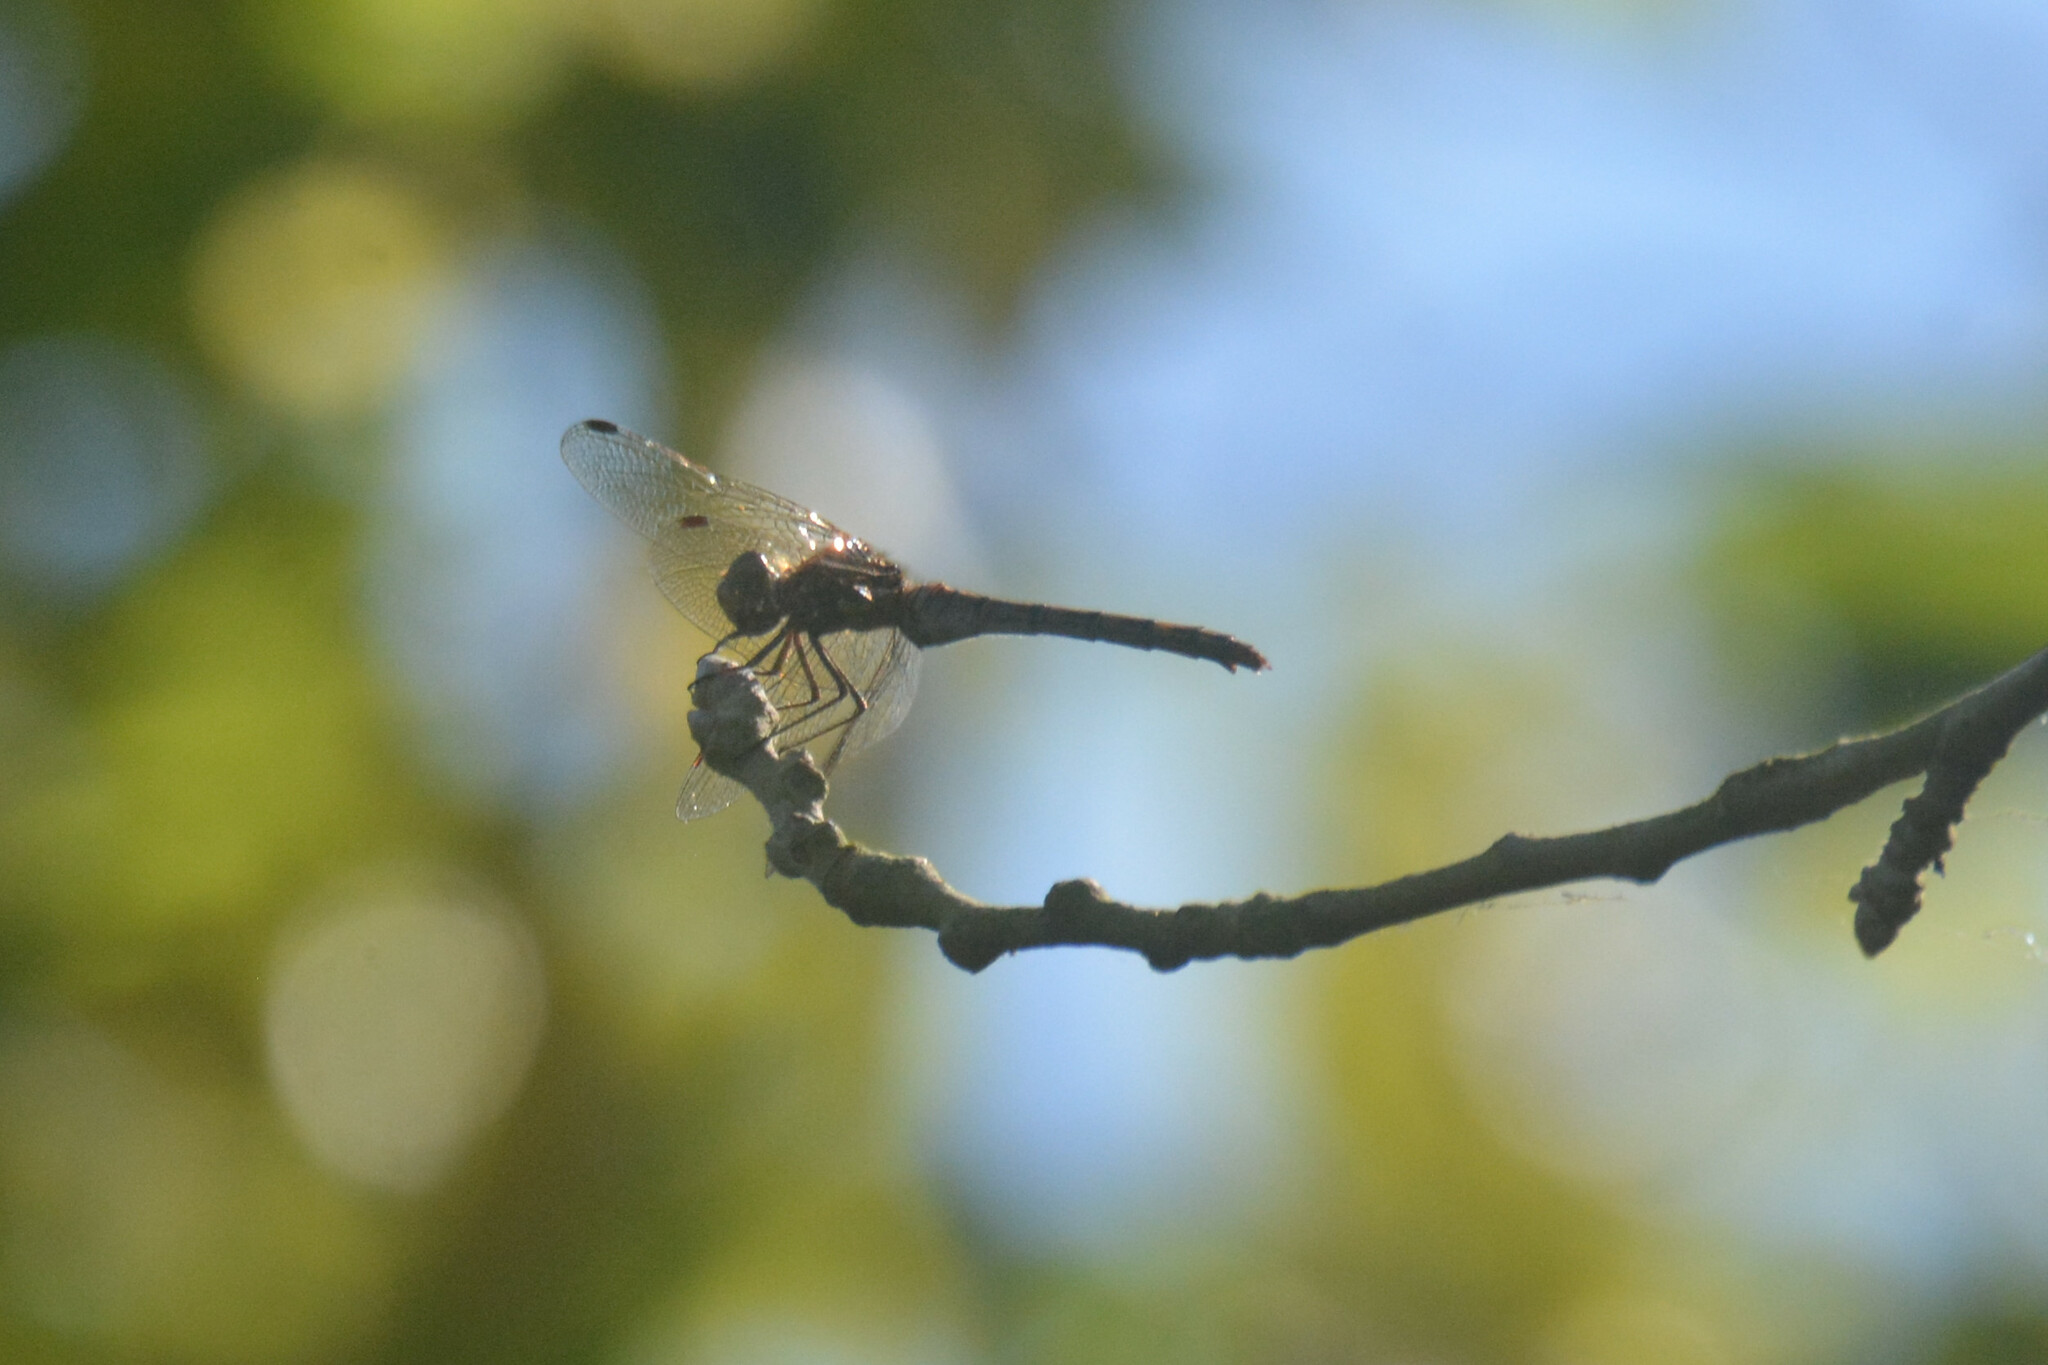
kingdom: Animalia
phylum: Arthropoda
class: Insecta
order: Odonata
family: Libellulidae
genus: Sympetrum
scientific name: Sympetrum striolatum
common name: Common darter
